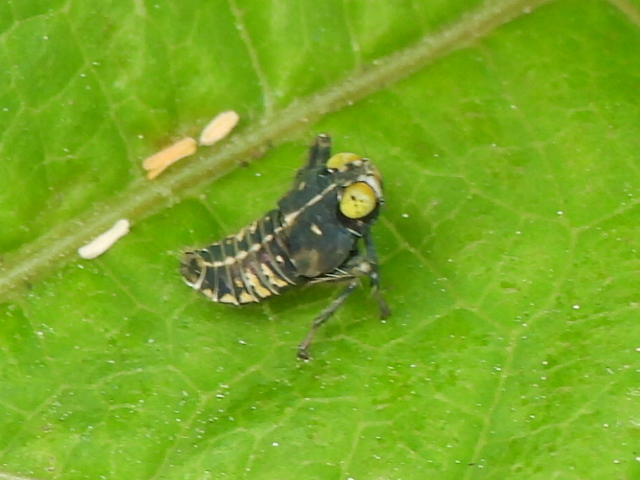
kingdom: Animalia
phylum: Arthropoda
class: Insecta
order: Hemiptera
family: Cicadellidae
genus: Jikradia
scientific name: Jikradia olitoria
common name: Coppery leafhopper
